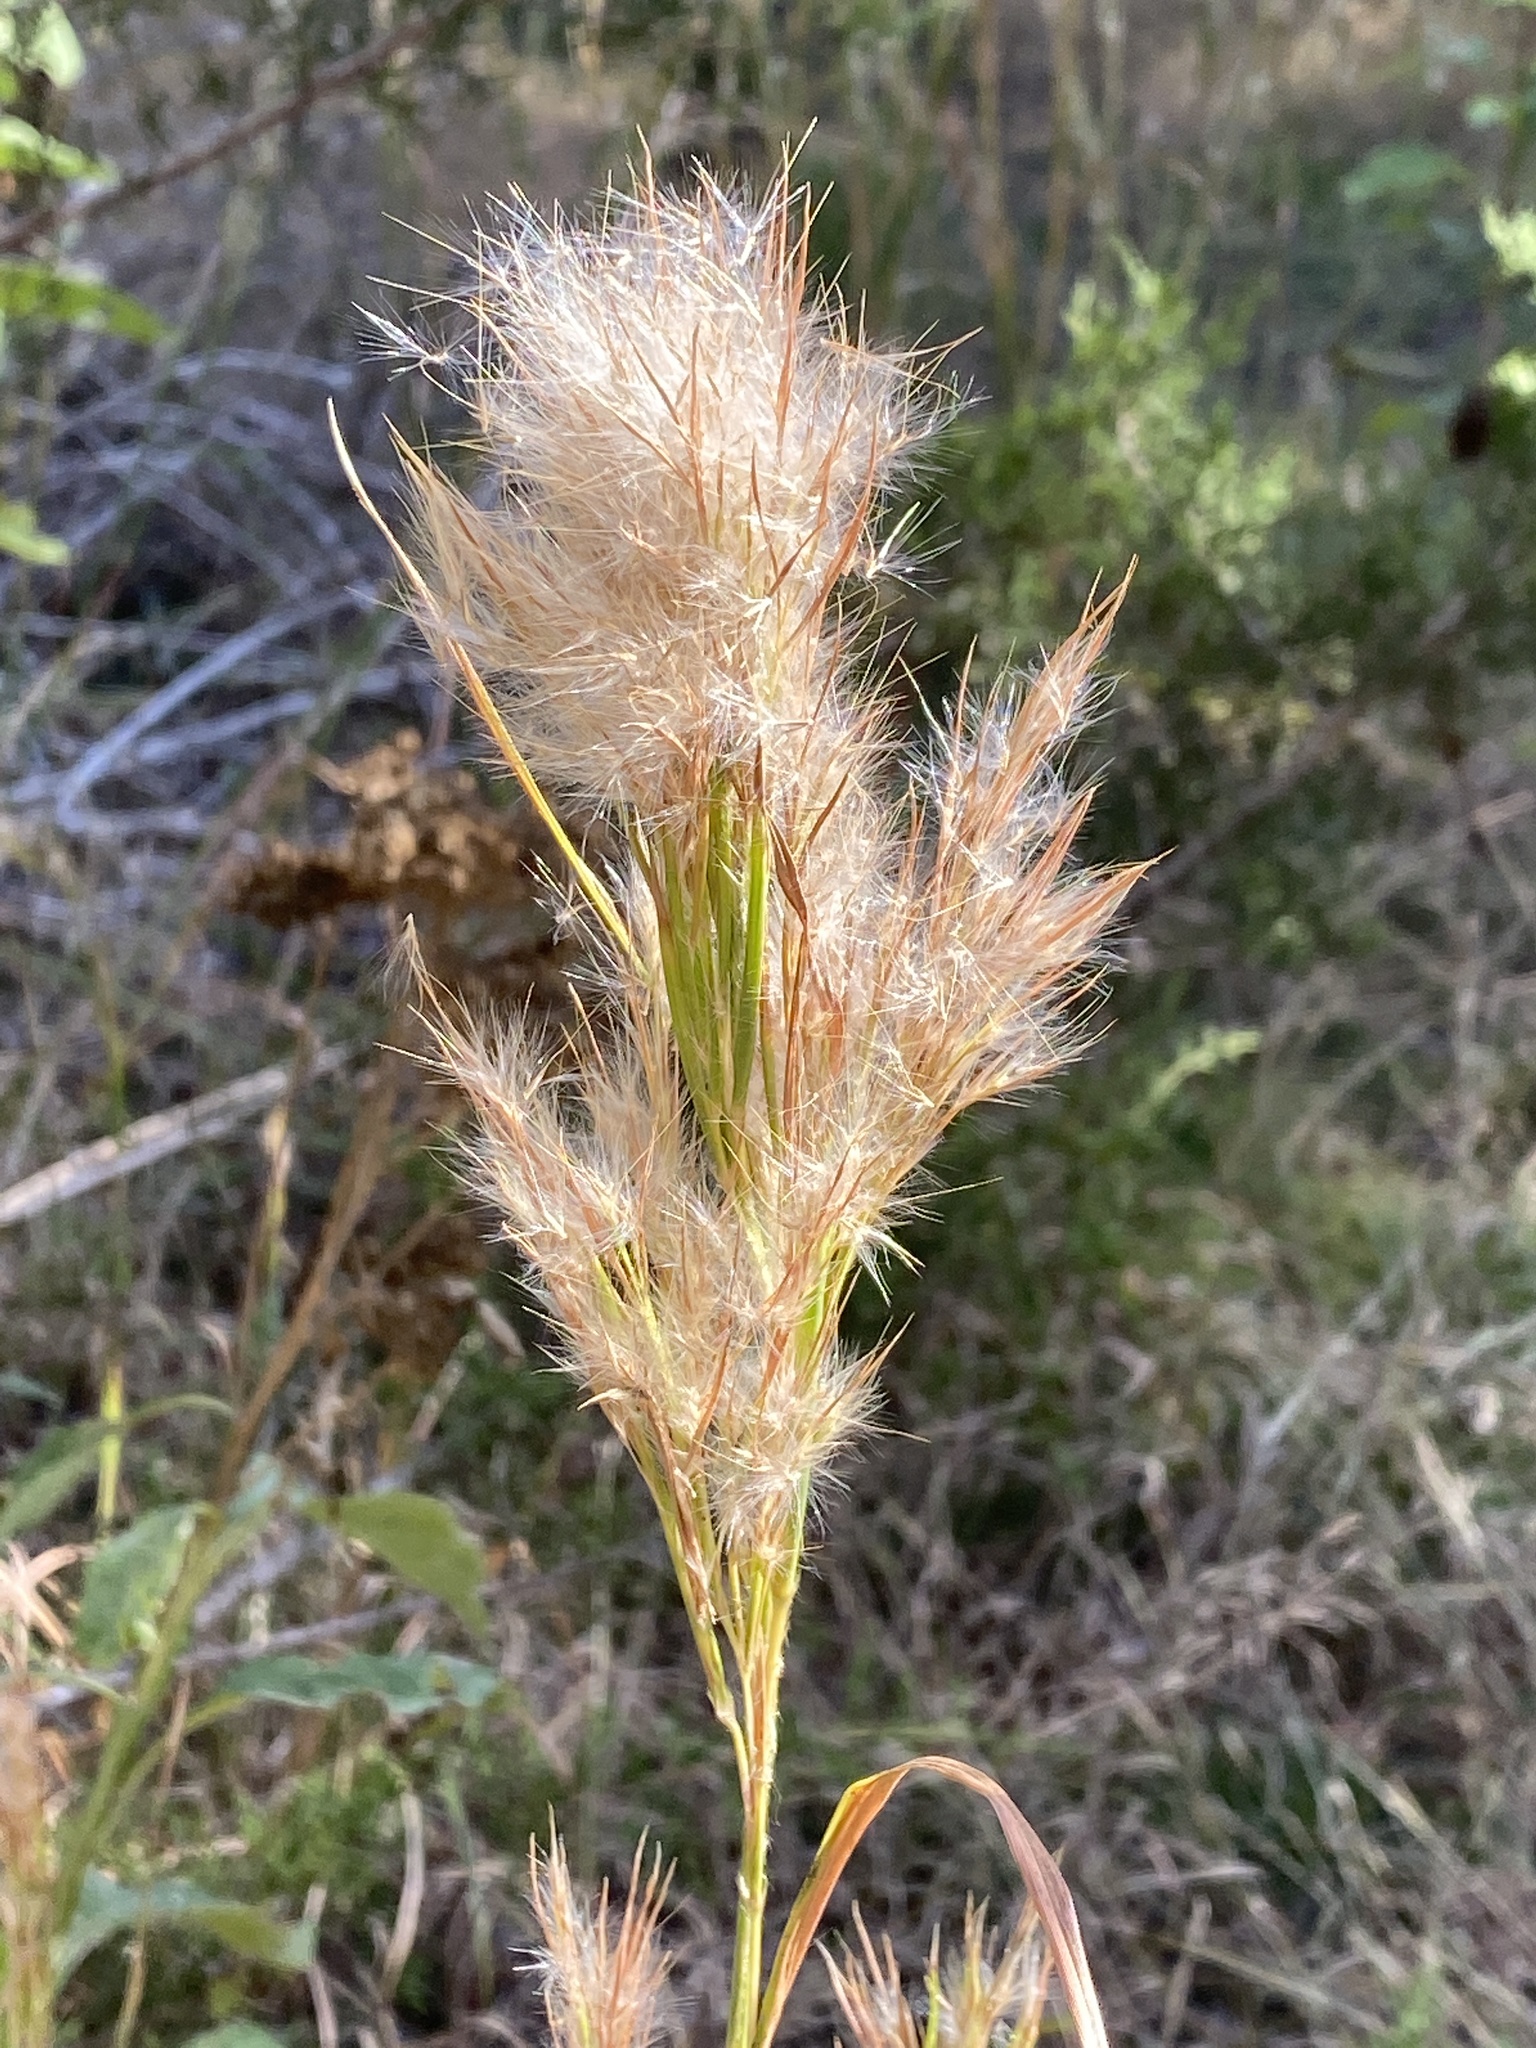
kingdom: Plantae
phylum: Tracheophyta
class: Liliopsida
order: Poales
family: Poaceae
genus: Andropogon
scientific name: Andropogon tenuispatheus
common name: Bushy bluestem
